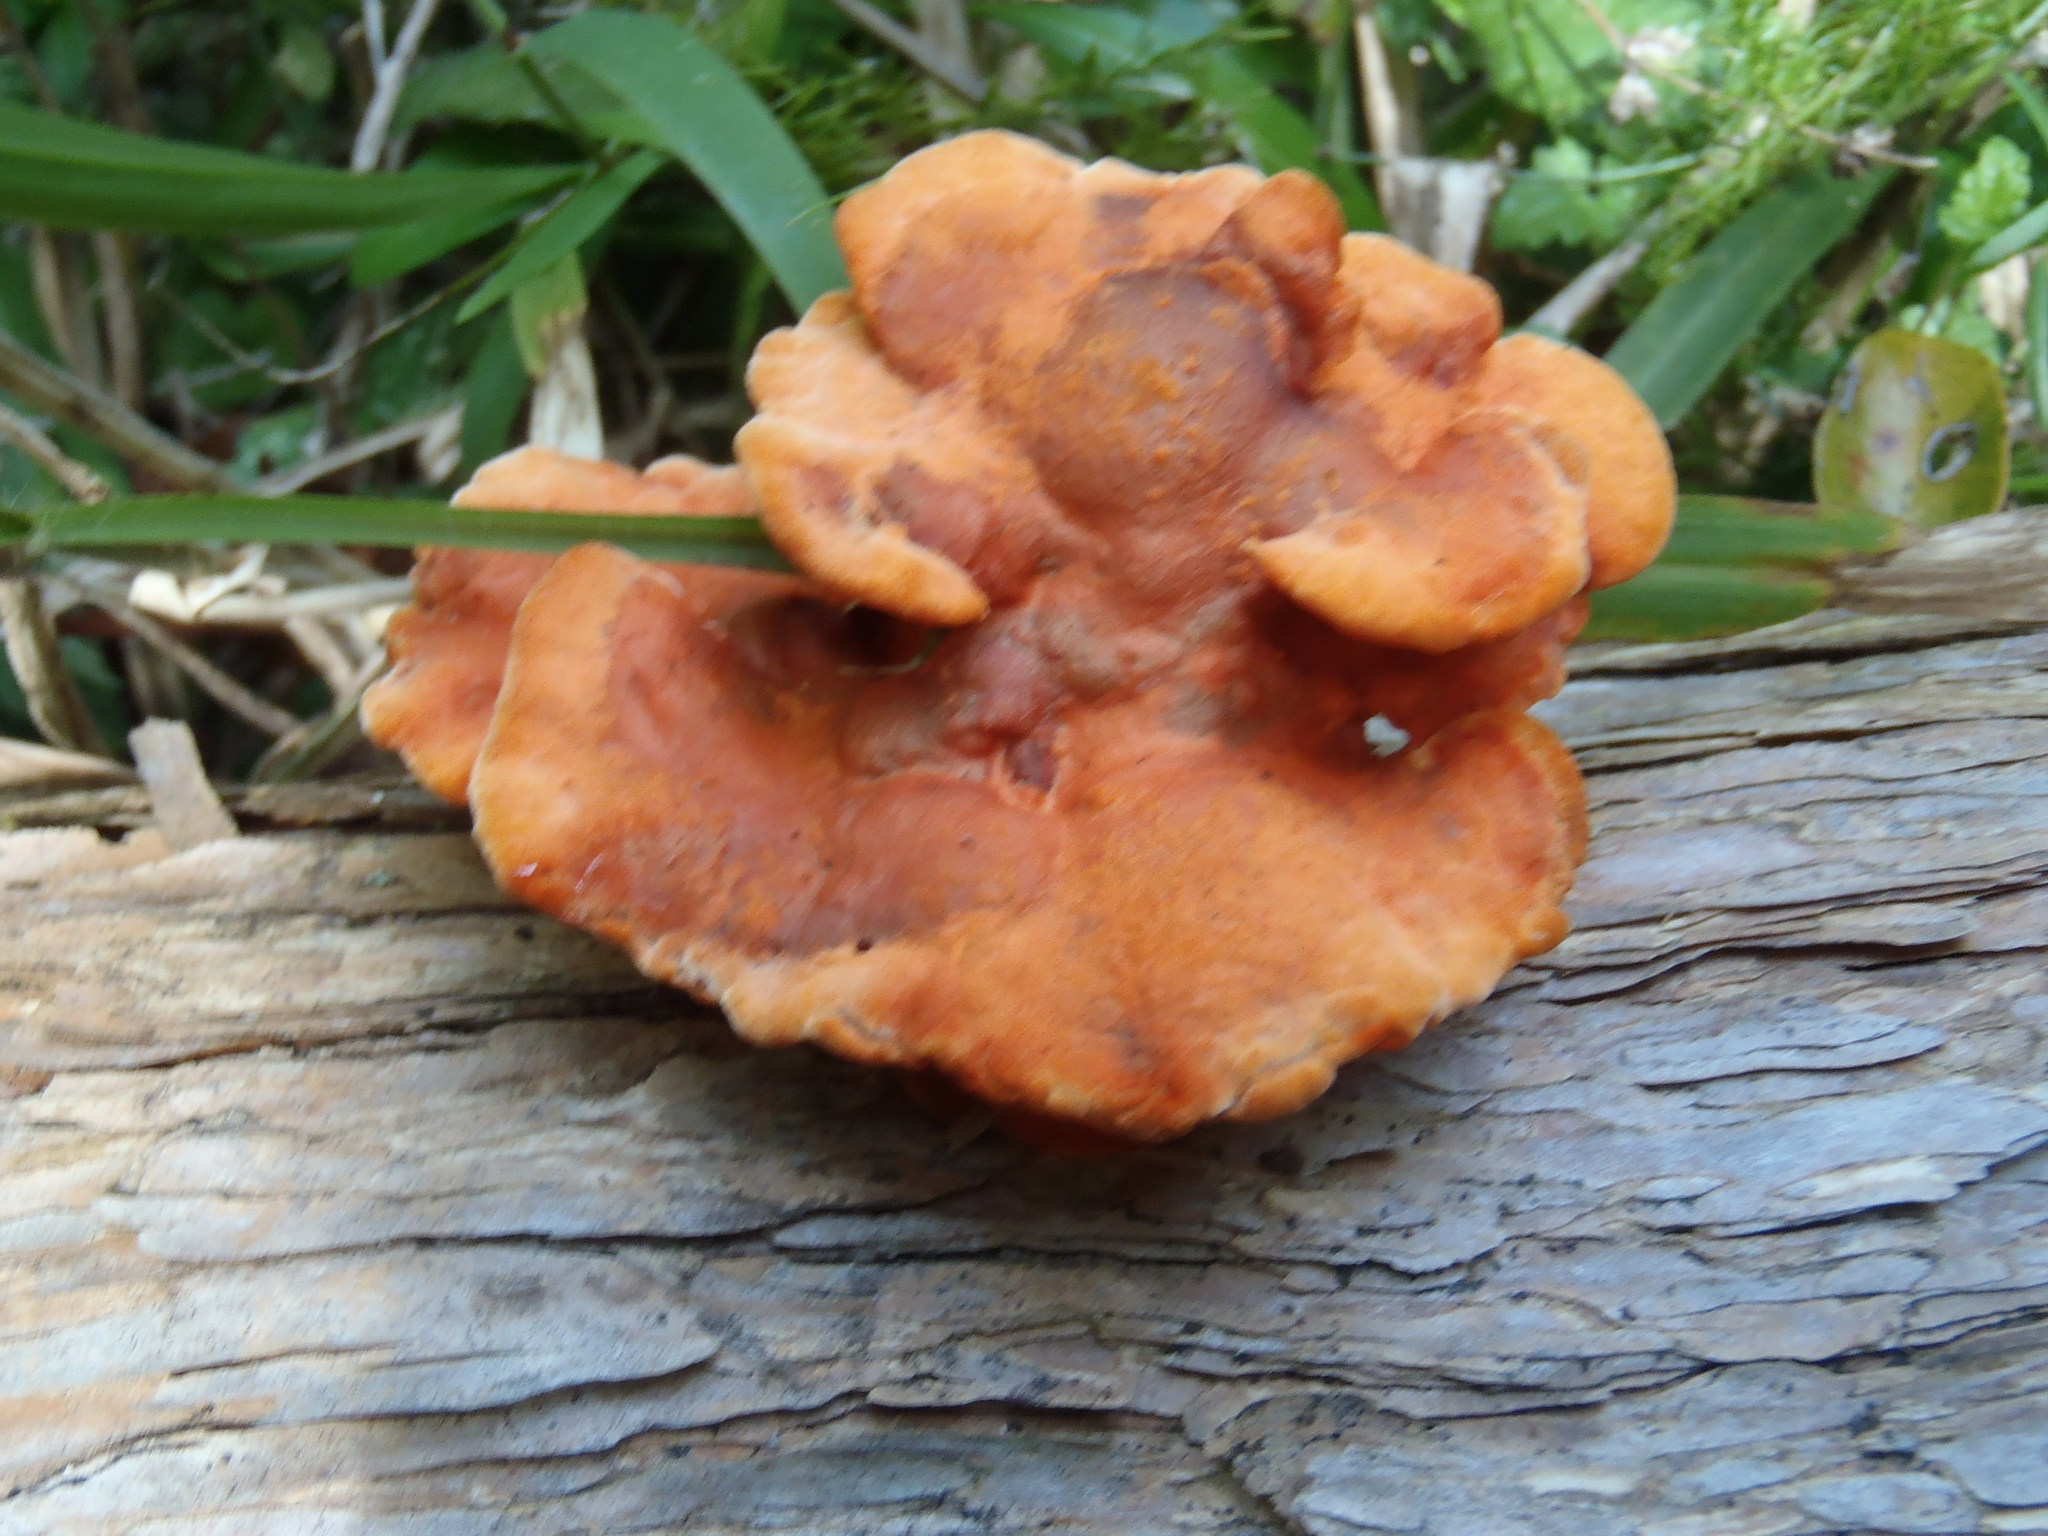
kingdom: Fungi
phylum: Basidiomycota
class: Agaricomycetes
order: Polyporales
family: Polyporaceae
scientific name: Polyporaceae
